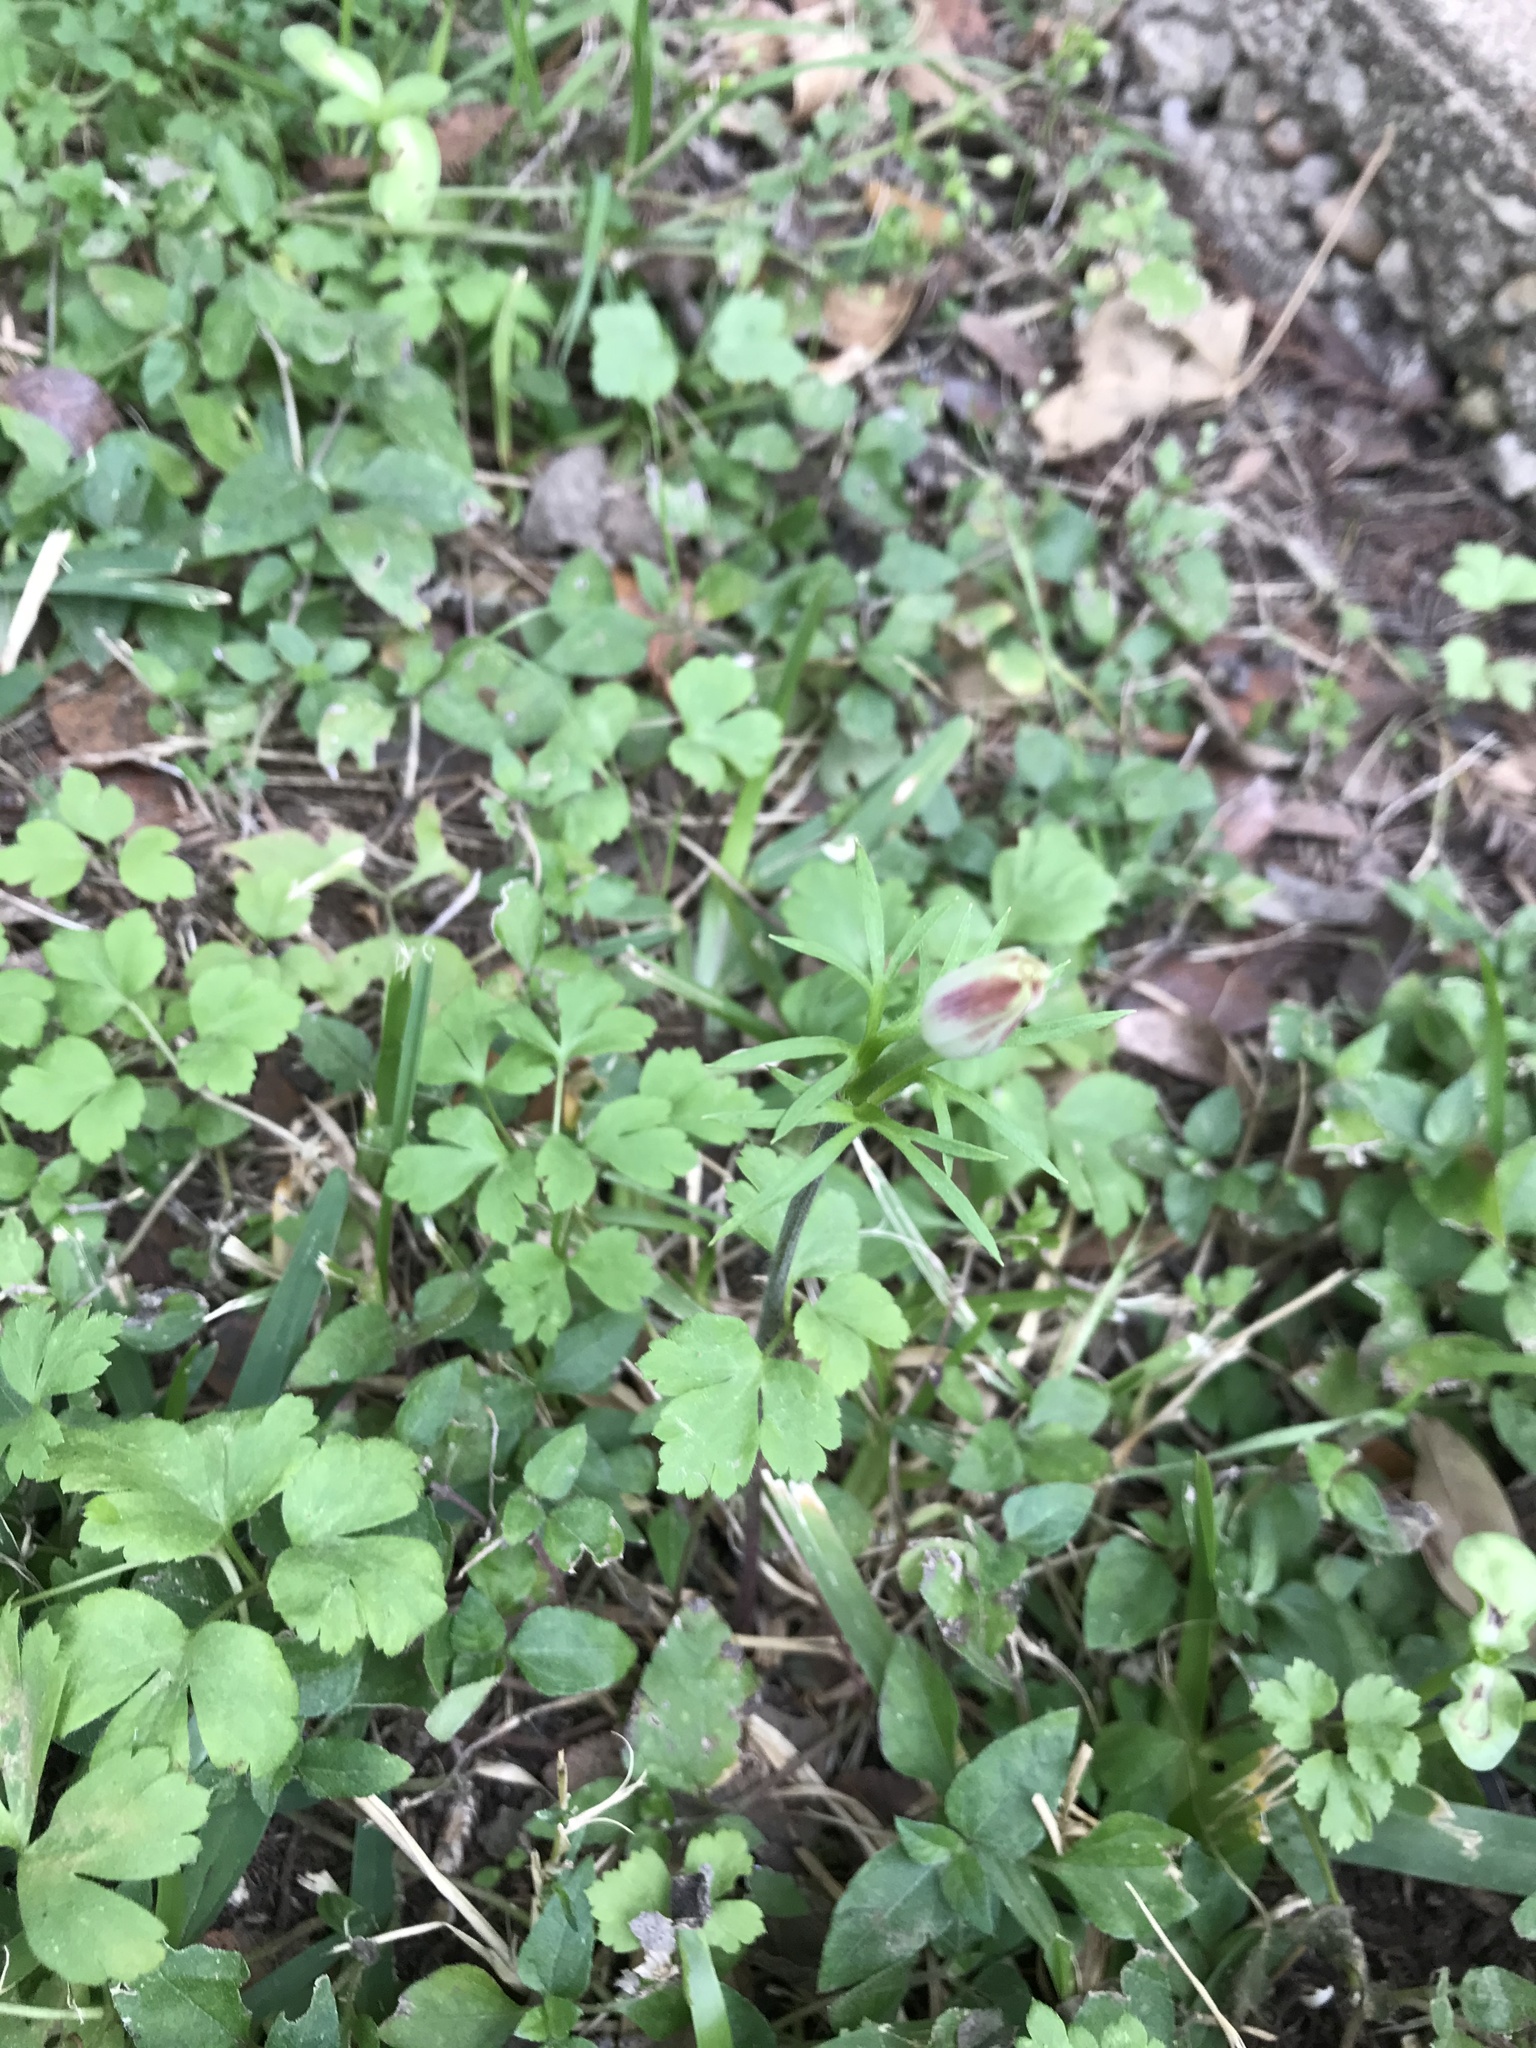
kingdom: Plantae
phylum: Tracheophyta
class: Magnoliopsida
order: Ranunculales
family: Ranunculaceae
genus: Anemone
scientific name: Anemone berlandieri
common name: Ten-petal anemone
